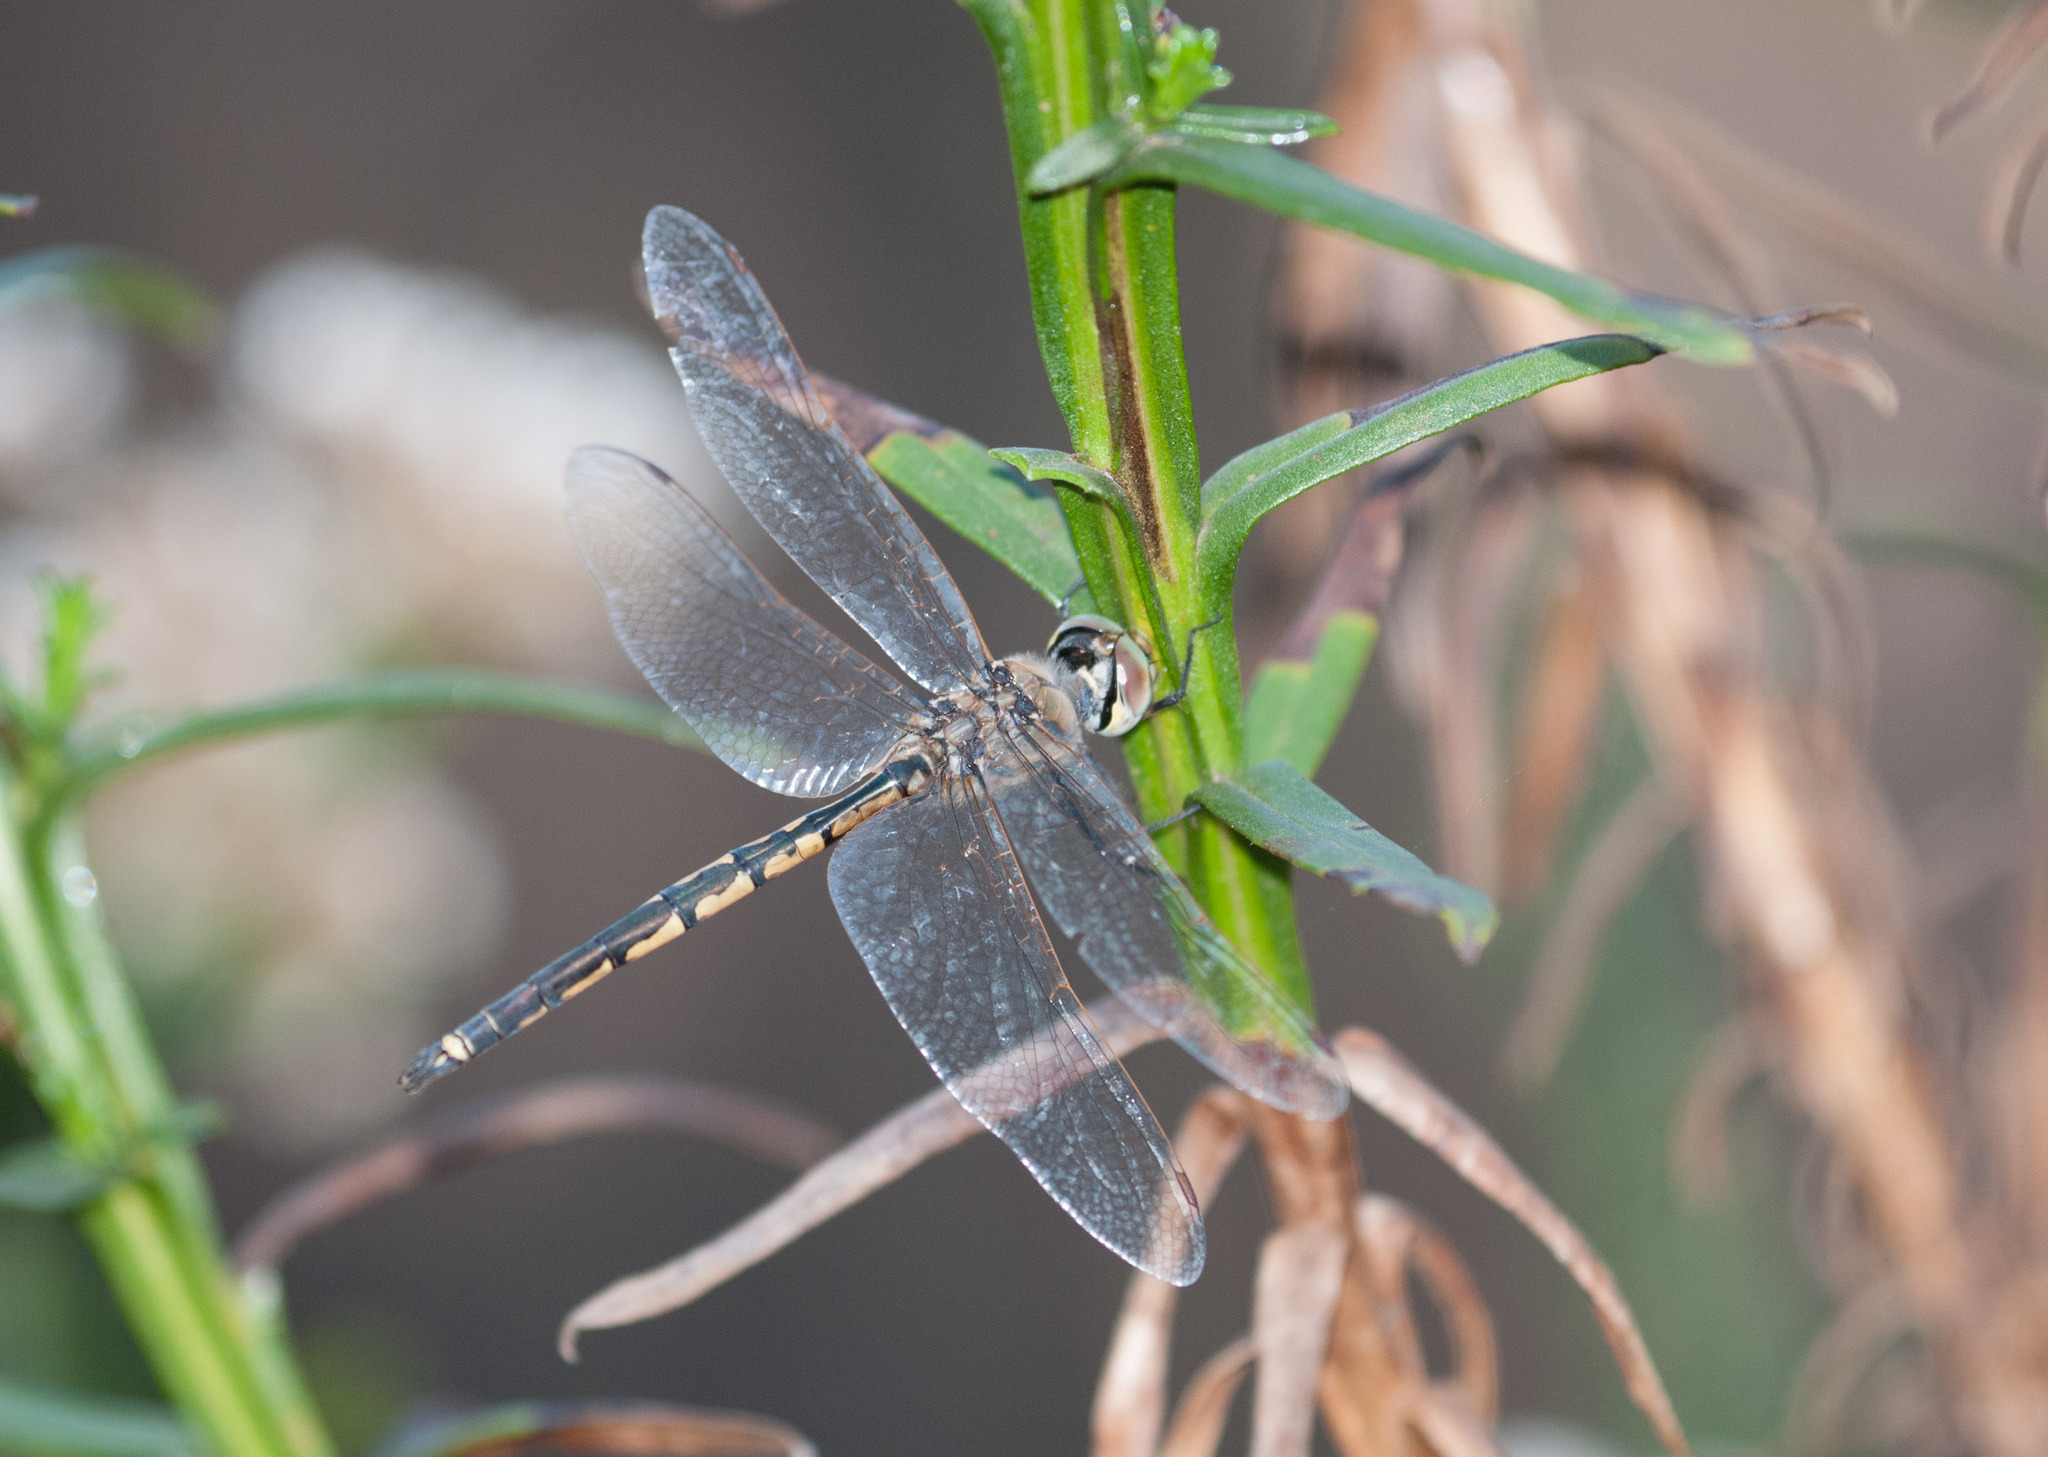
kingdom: Animalia
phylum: Arthropoda
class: Insecta
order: Odonata
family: Corduliidae
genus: Hemicordulia
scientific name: Hemicordulia tau
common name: Tau emerald
